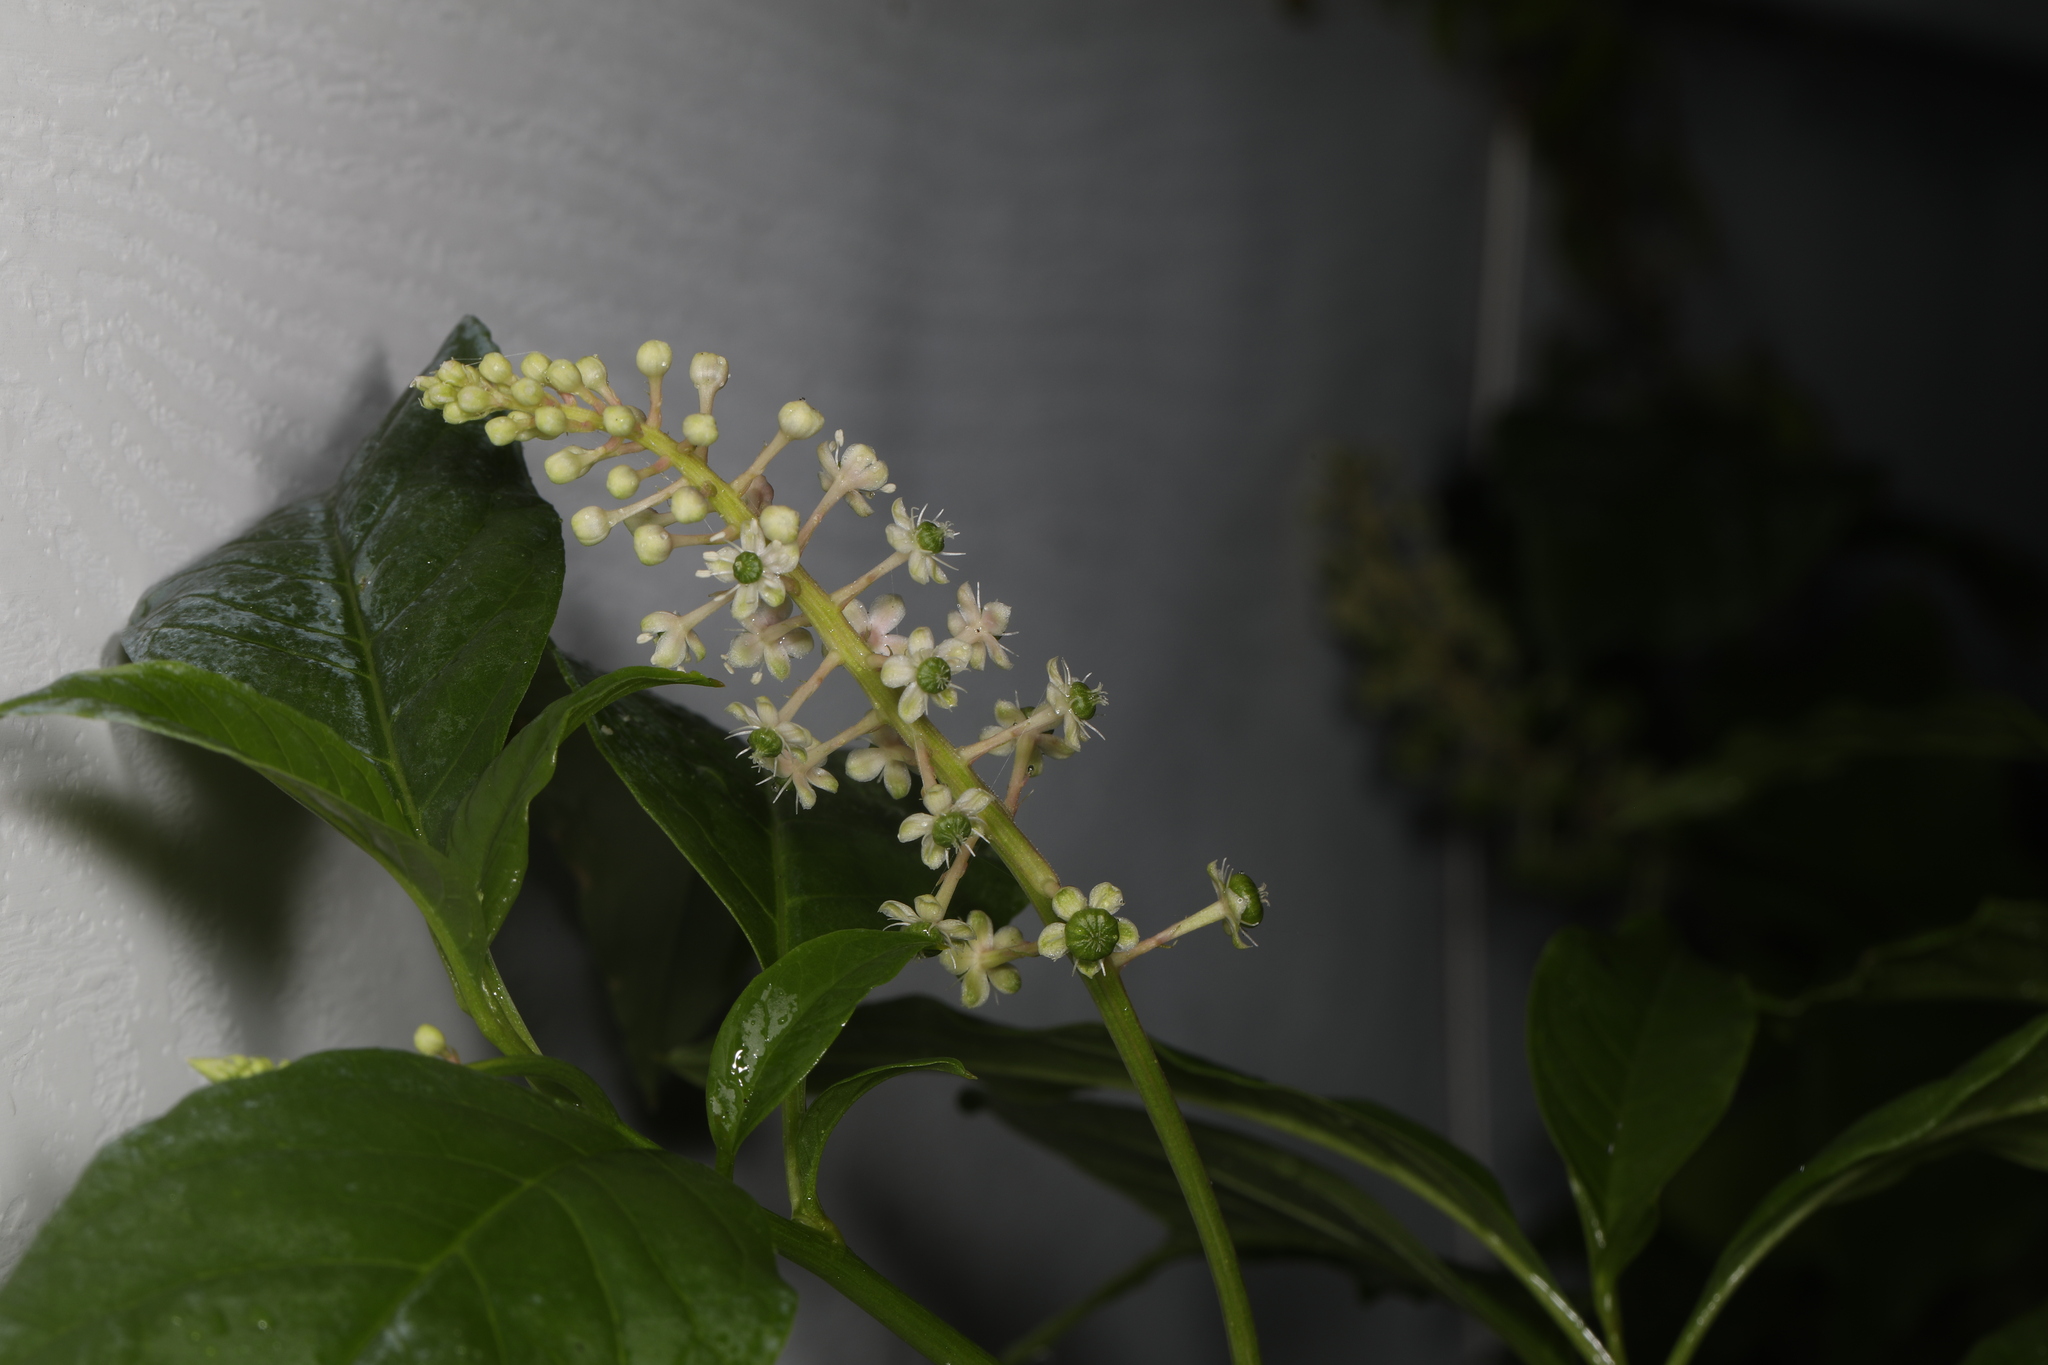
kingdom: Plantae
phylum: Tracheophyta
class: Magnoliopsida
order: Caryophyllales
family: Phytolaccaceae
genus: Phytolacca
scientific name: Phytolacca americana
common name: American pokeweed
